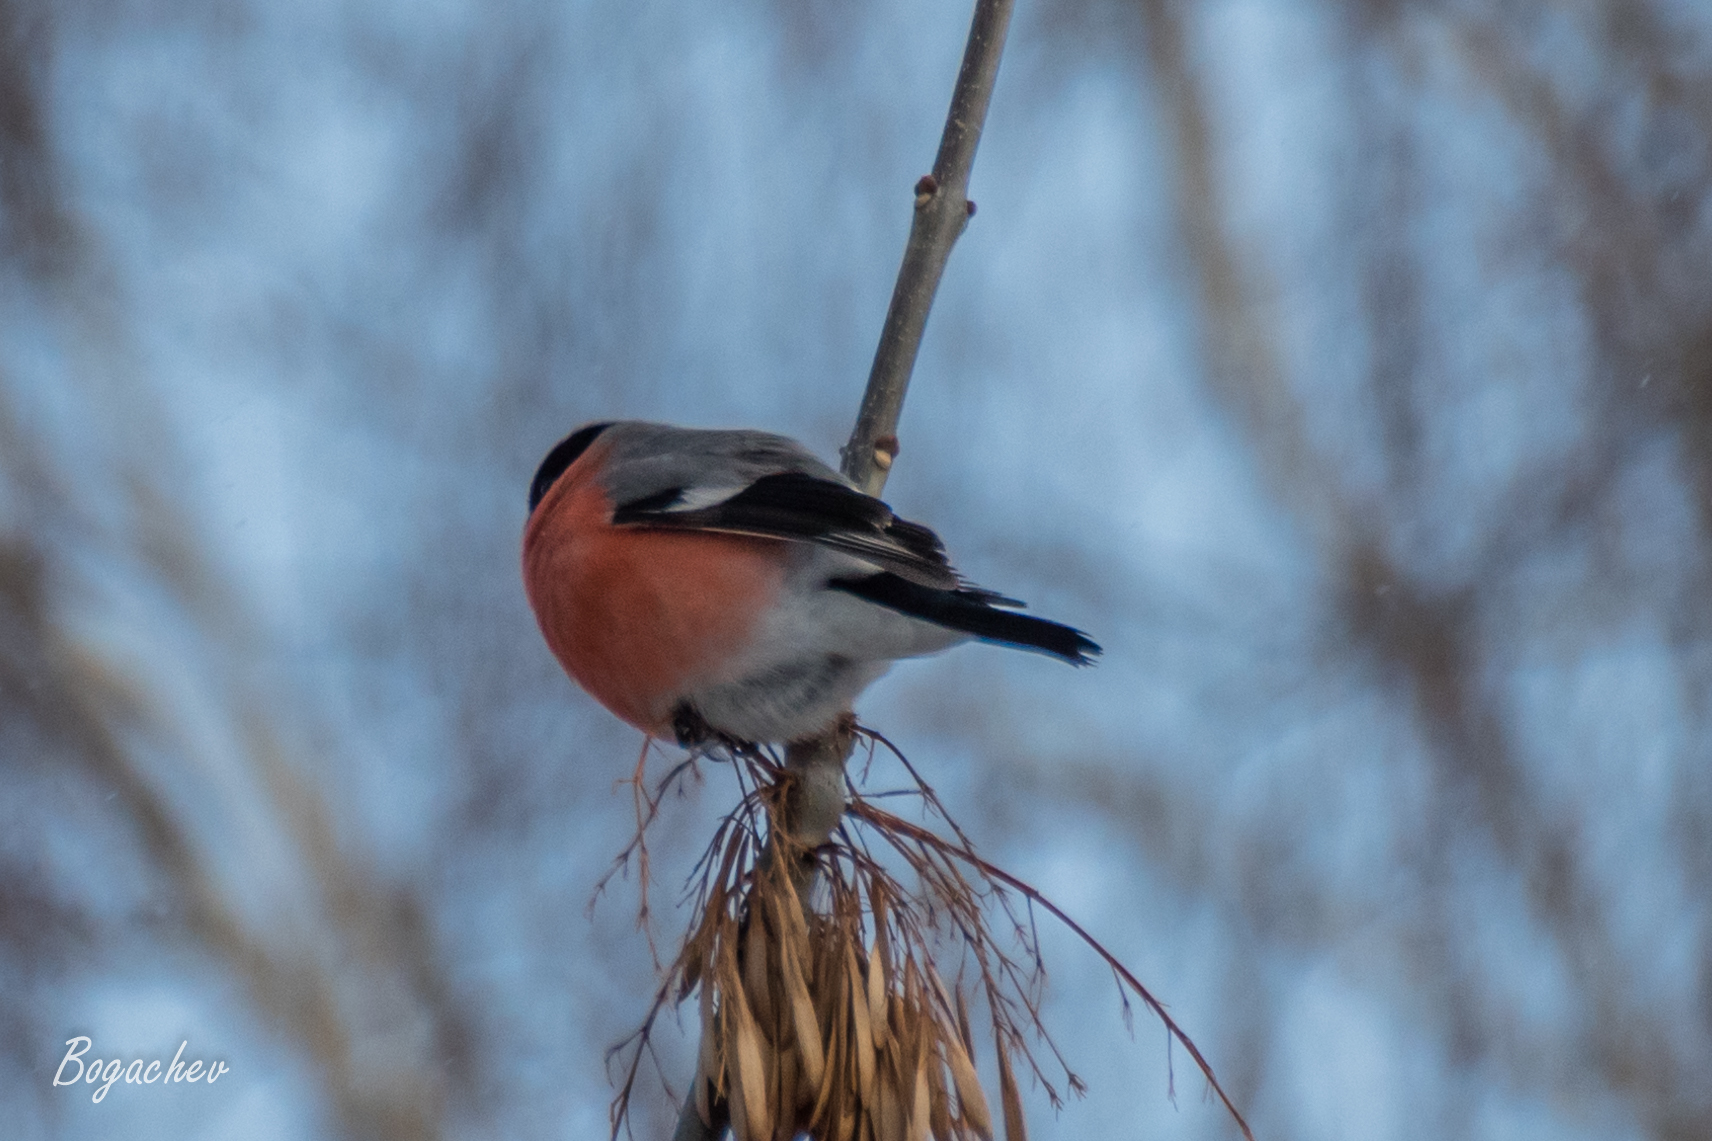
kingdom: Animalia
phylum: Chordata
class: Aves
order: Passeriformes
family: Fringillidae
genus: Pyrrhula
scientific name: Pyrrhula pyrrhula
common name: Eurasian bullfinch
